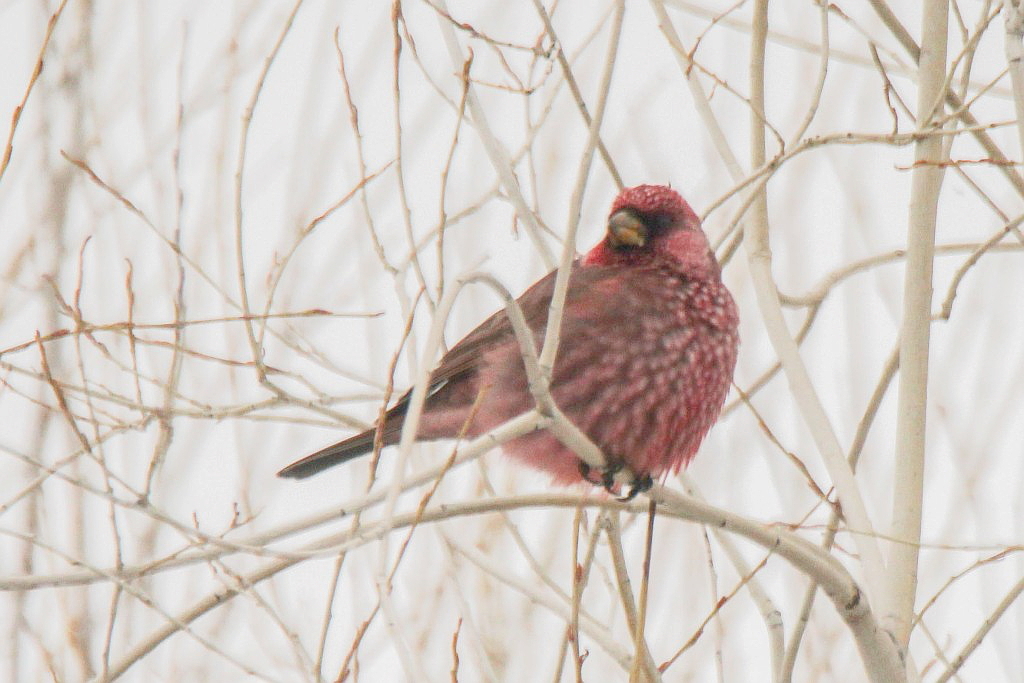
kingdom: Animalia
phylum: Chordata
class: Aves
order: Passeriformes
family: Fringillidae
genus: Carpodacus
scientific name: Carpodacus rubicilla
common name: Great rosefinch
